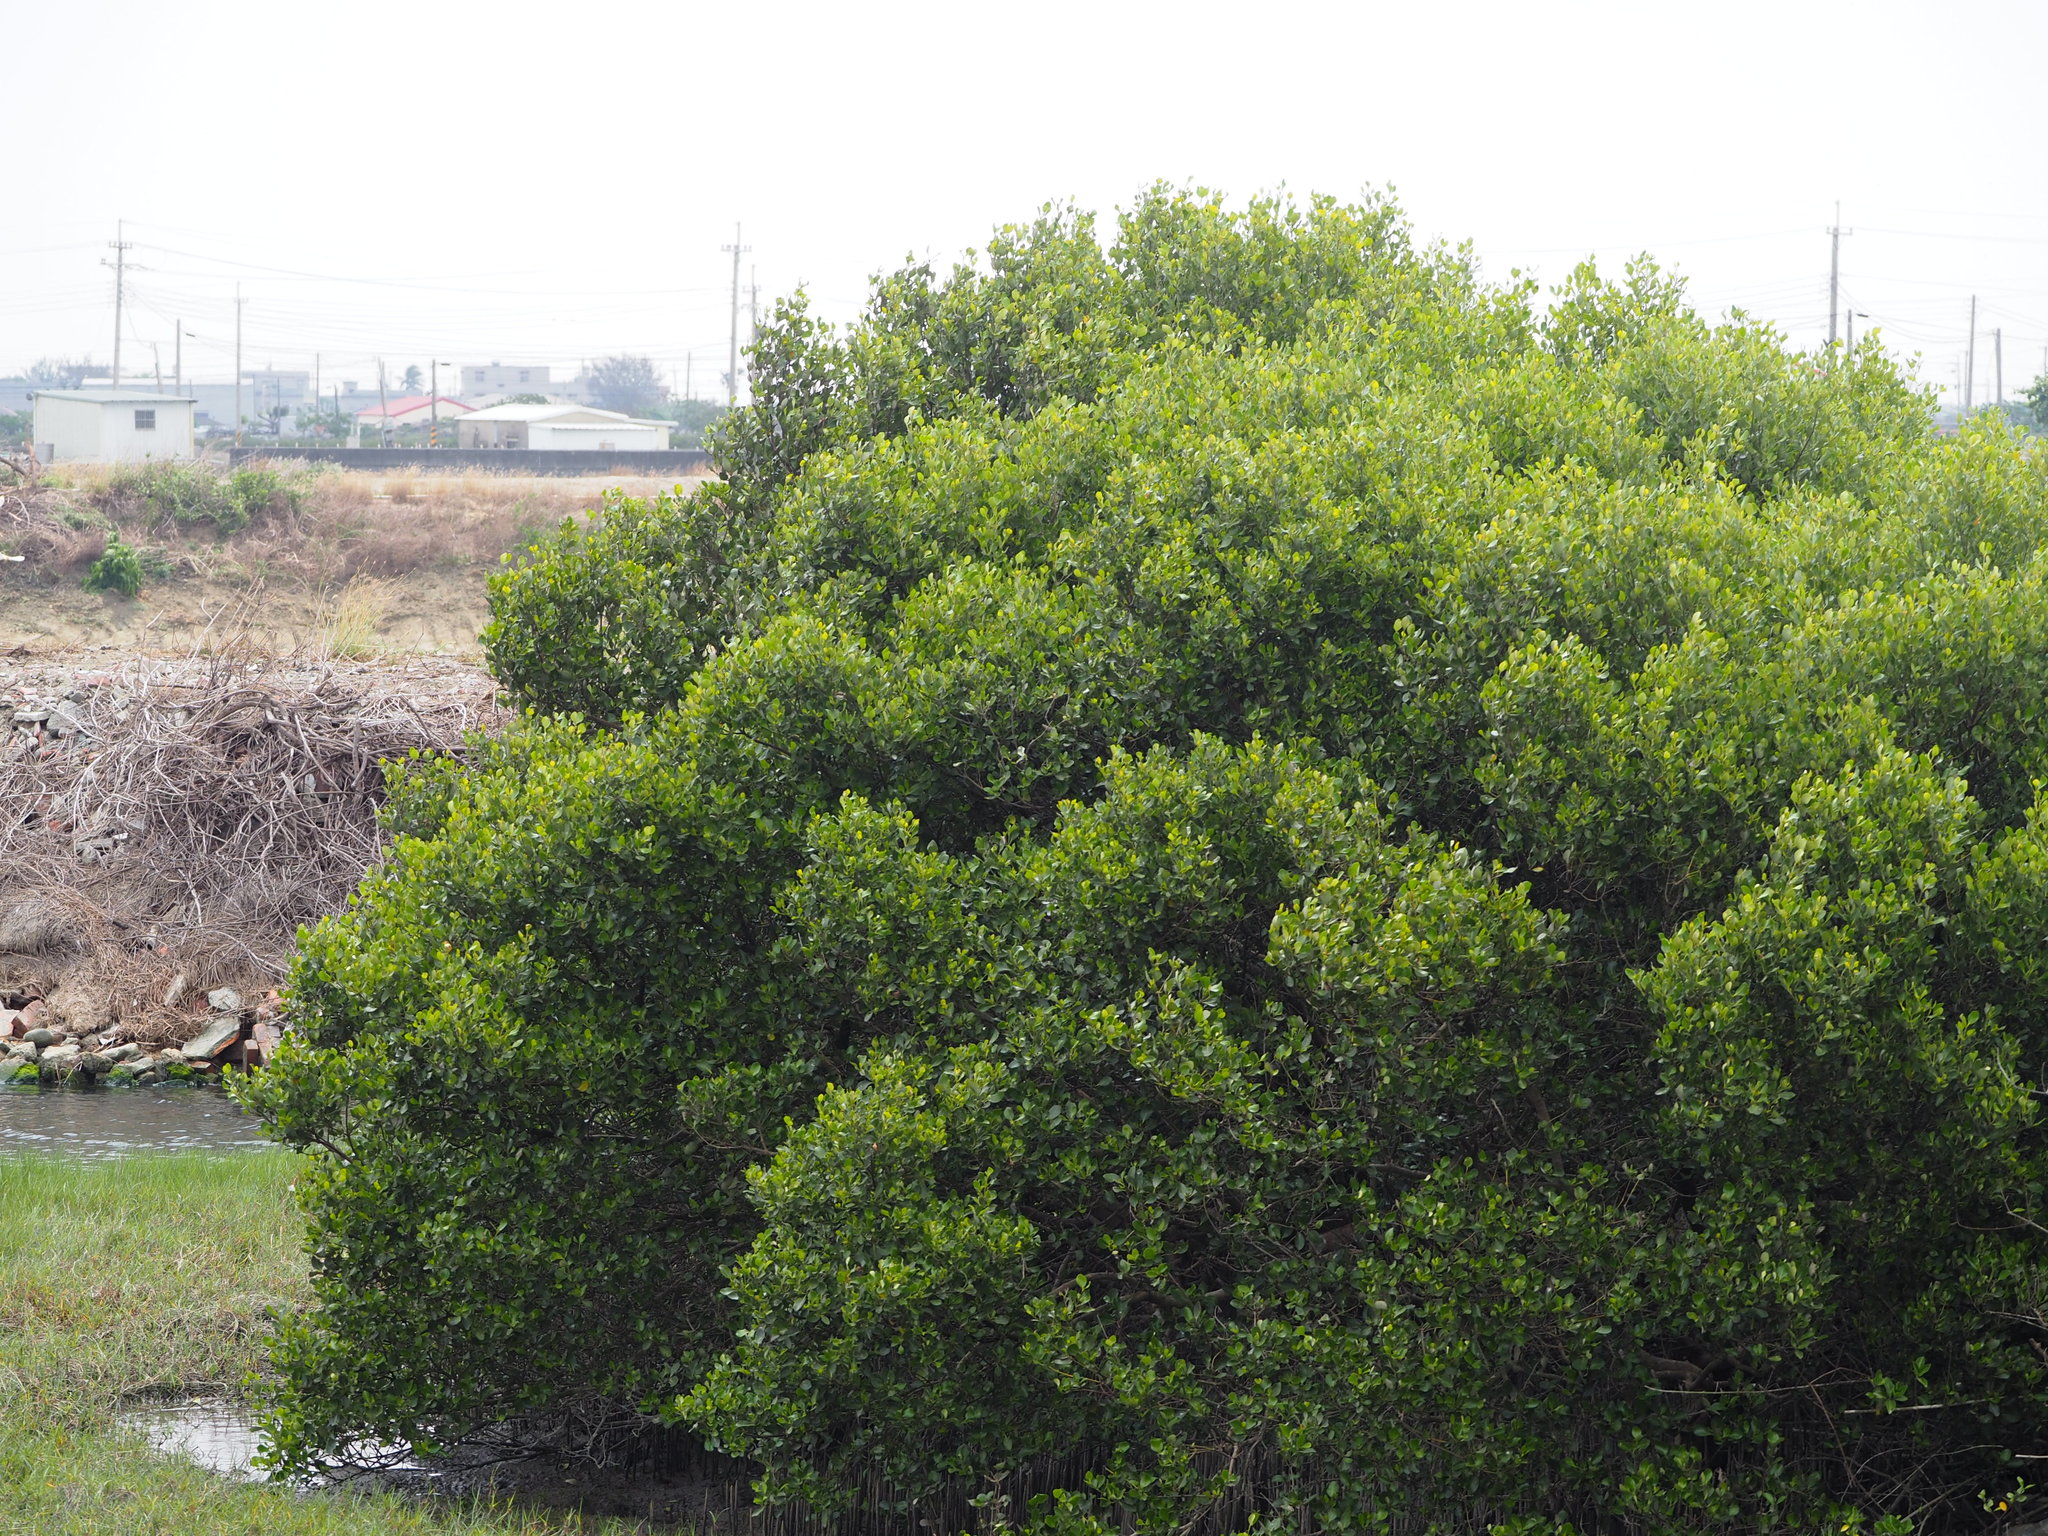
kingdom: Plantae
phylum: Tracheophyta
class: Magnoliopsida
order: Lamiales
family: Acanthaceae
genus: Avicennia
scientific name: Avicennia marina
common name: Gray mangrove
